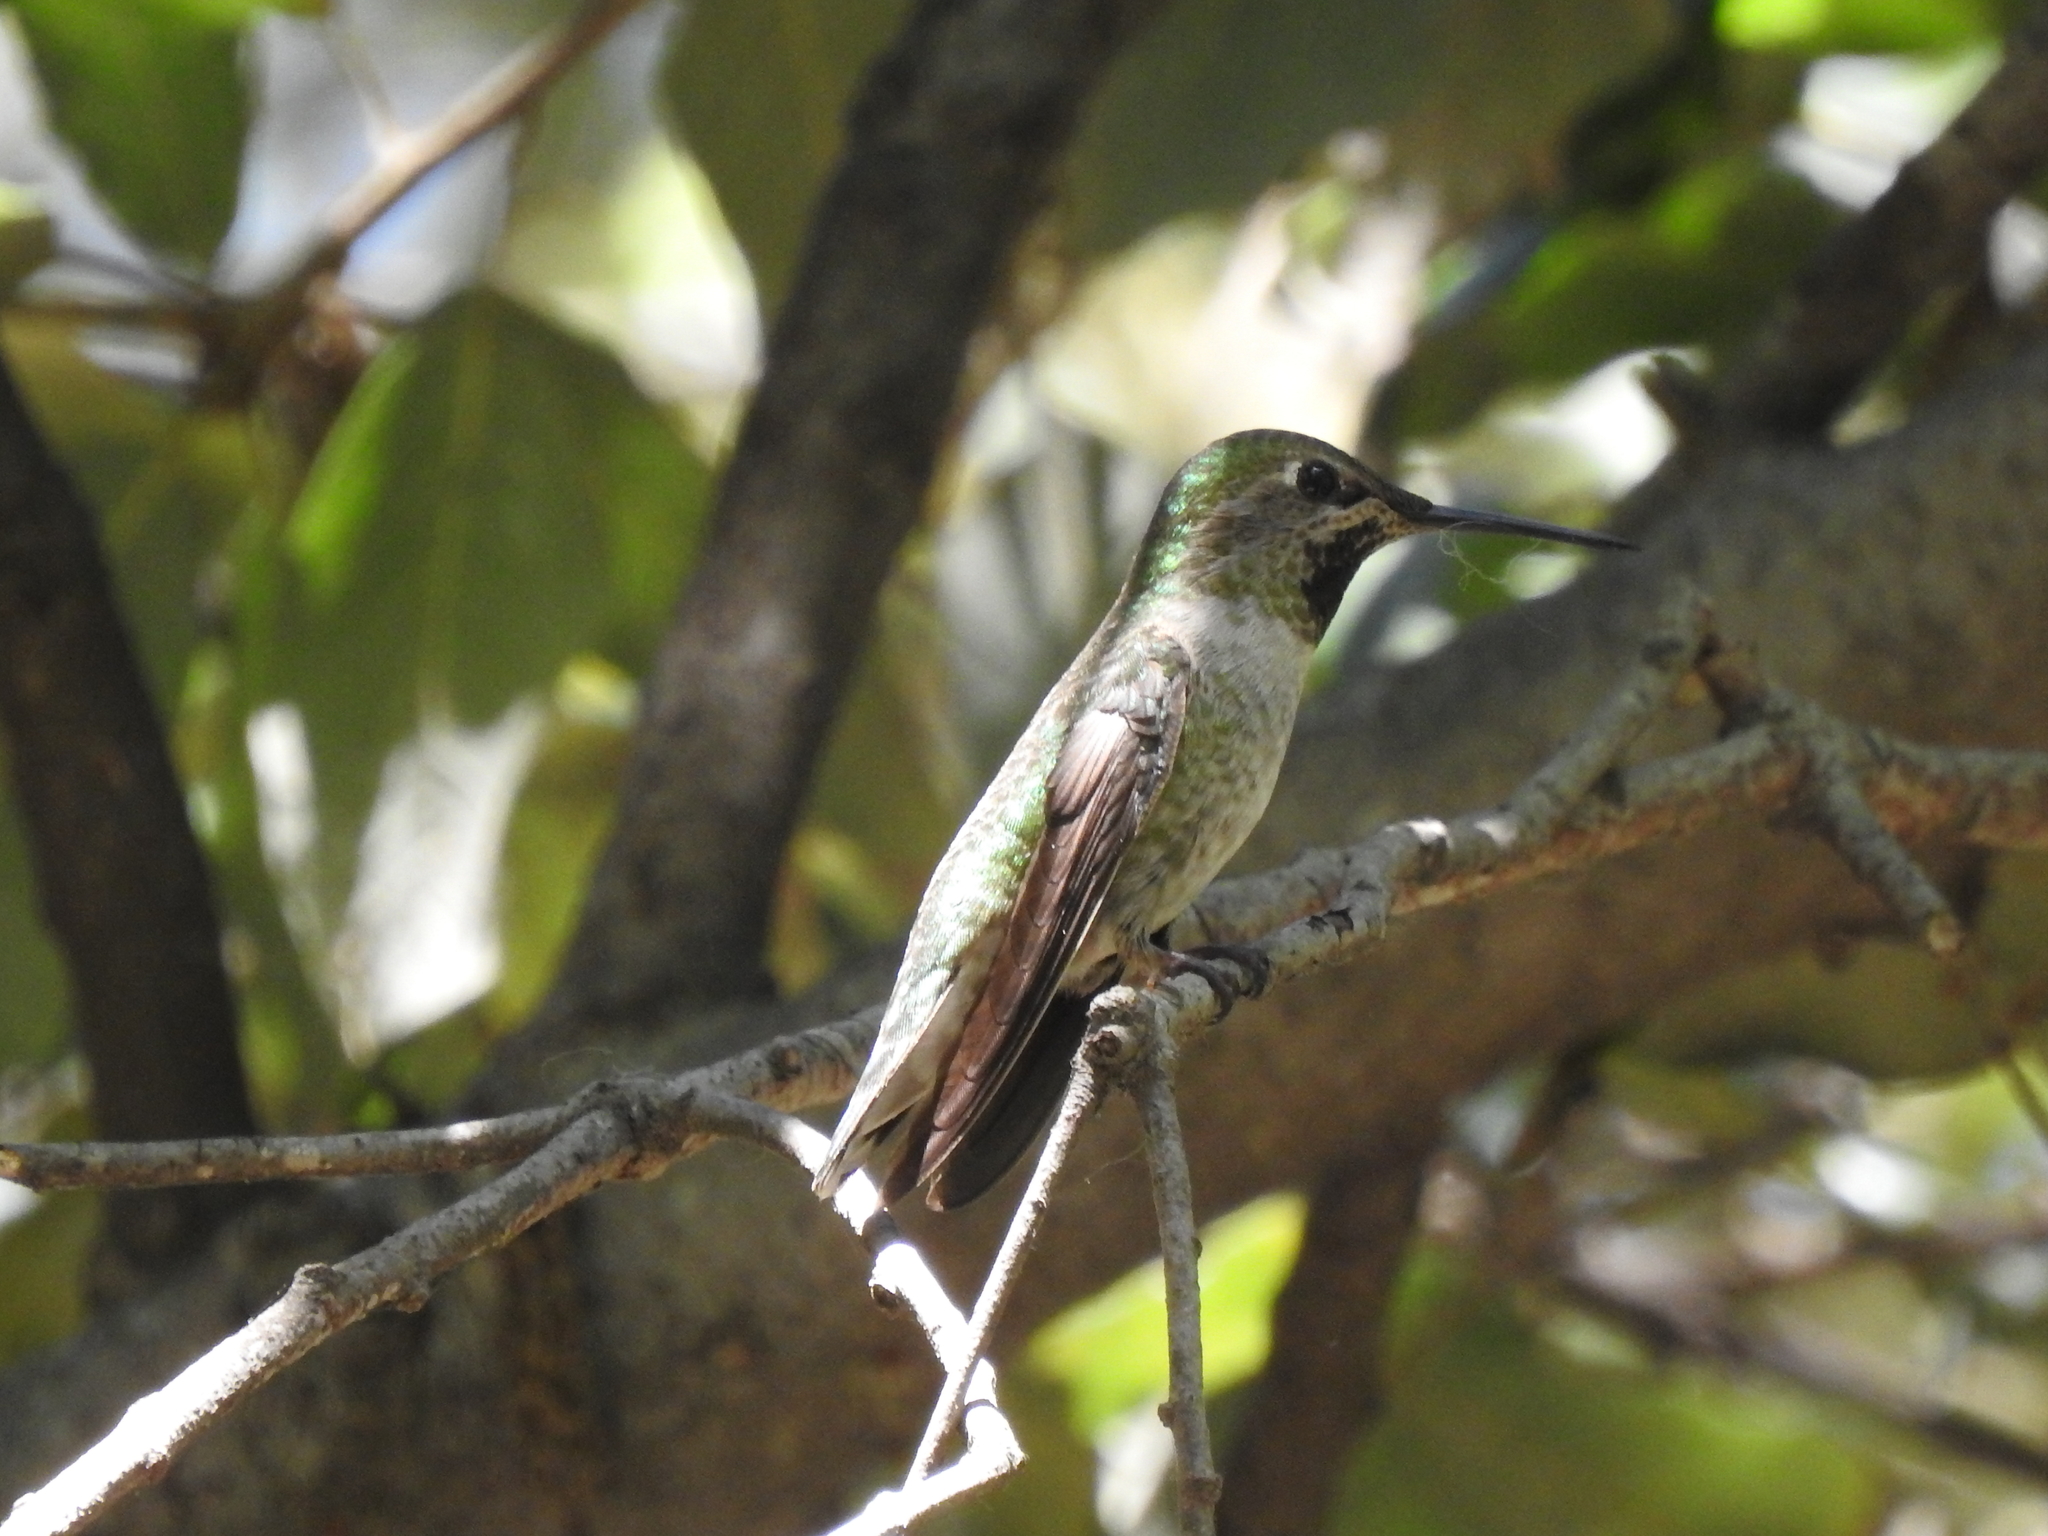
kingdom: Animalia
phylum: Chordata
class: Aves
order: Apodiformes
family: Trochilidae
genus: Calypte
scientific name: Calypte anna
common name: Anna's hummingbird
